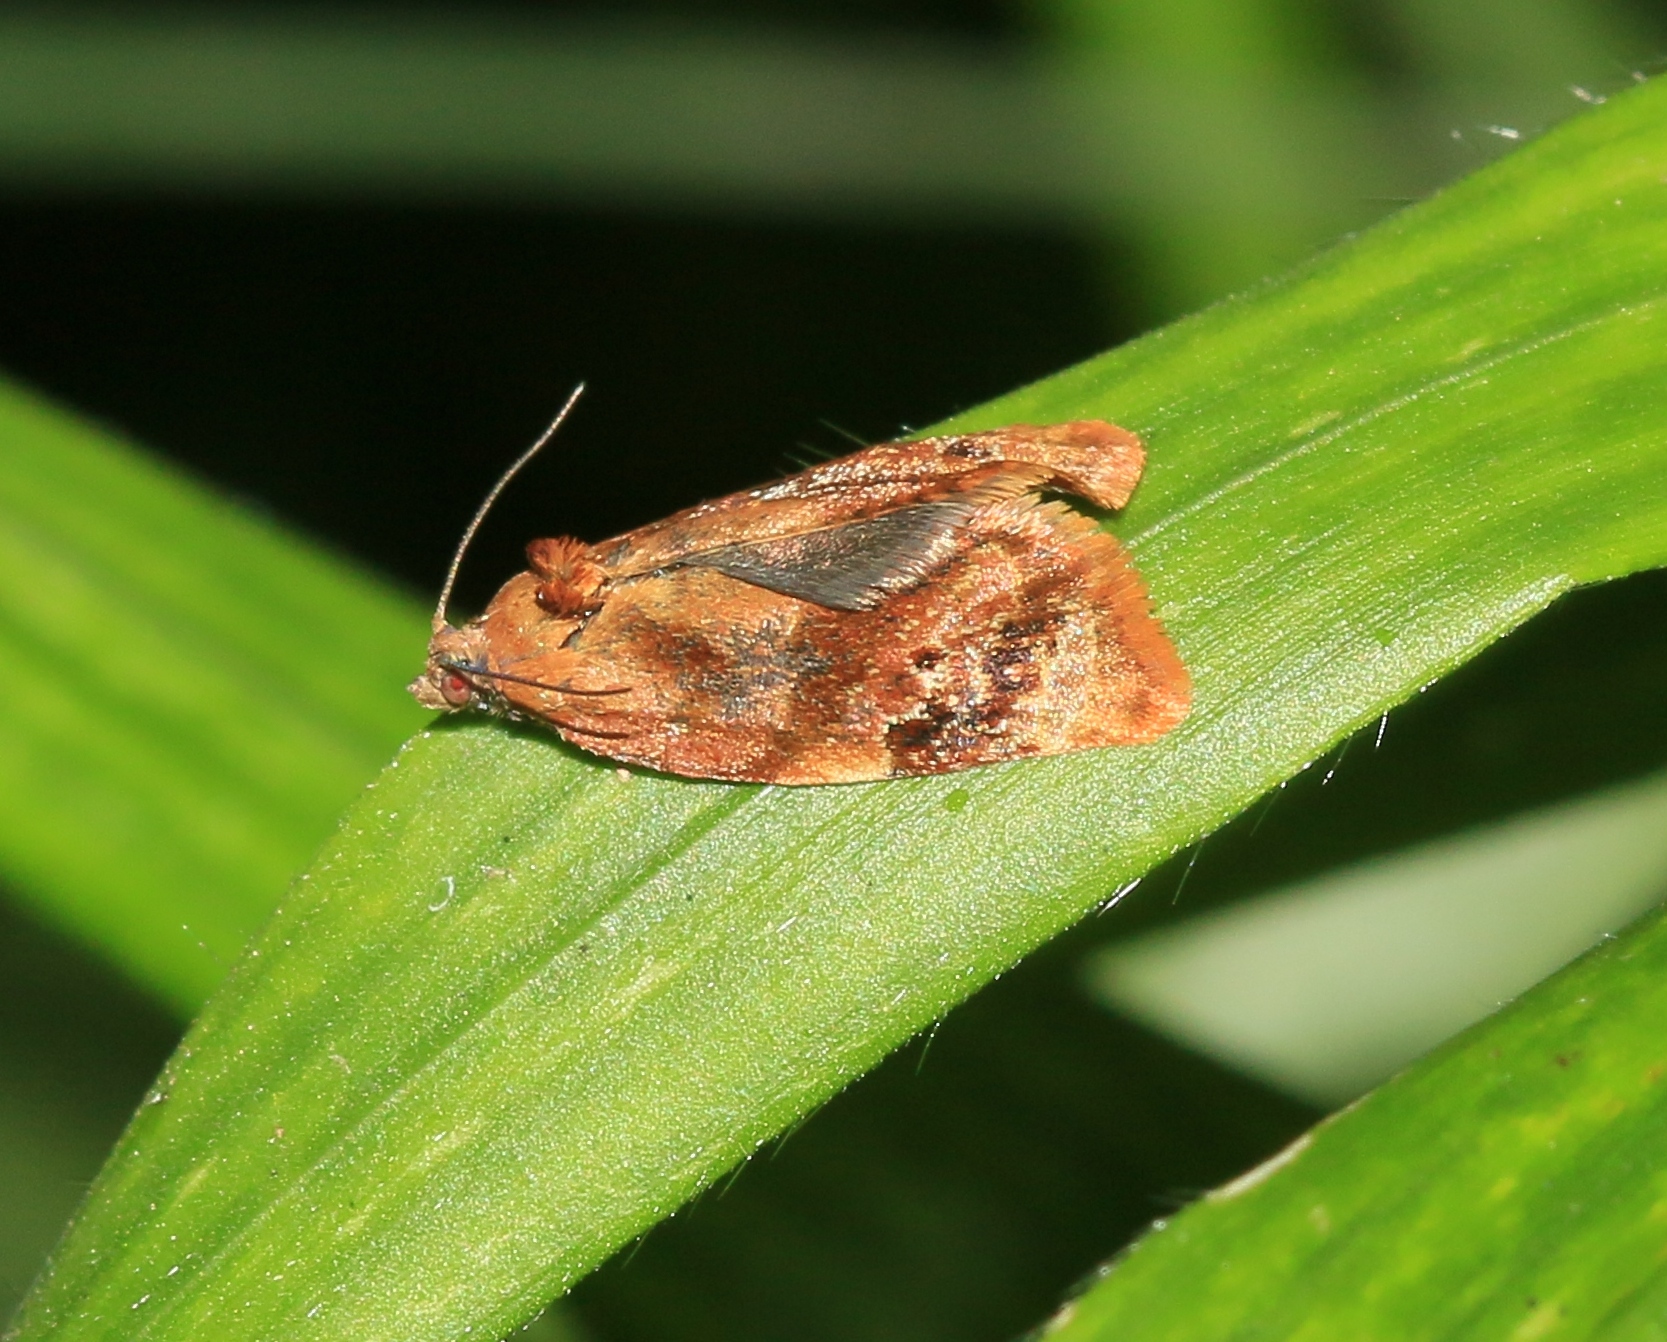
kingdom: Animalia
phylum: Arthropoda
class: Insecta
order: Lepidoptera
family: Tortricidae
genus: Ditula
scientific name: Ditula angustiorana
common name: Red-barred tortrix
